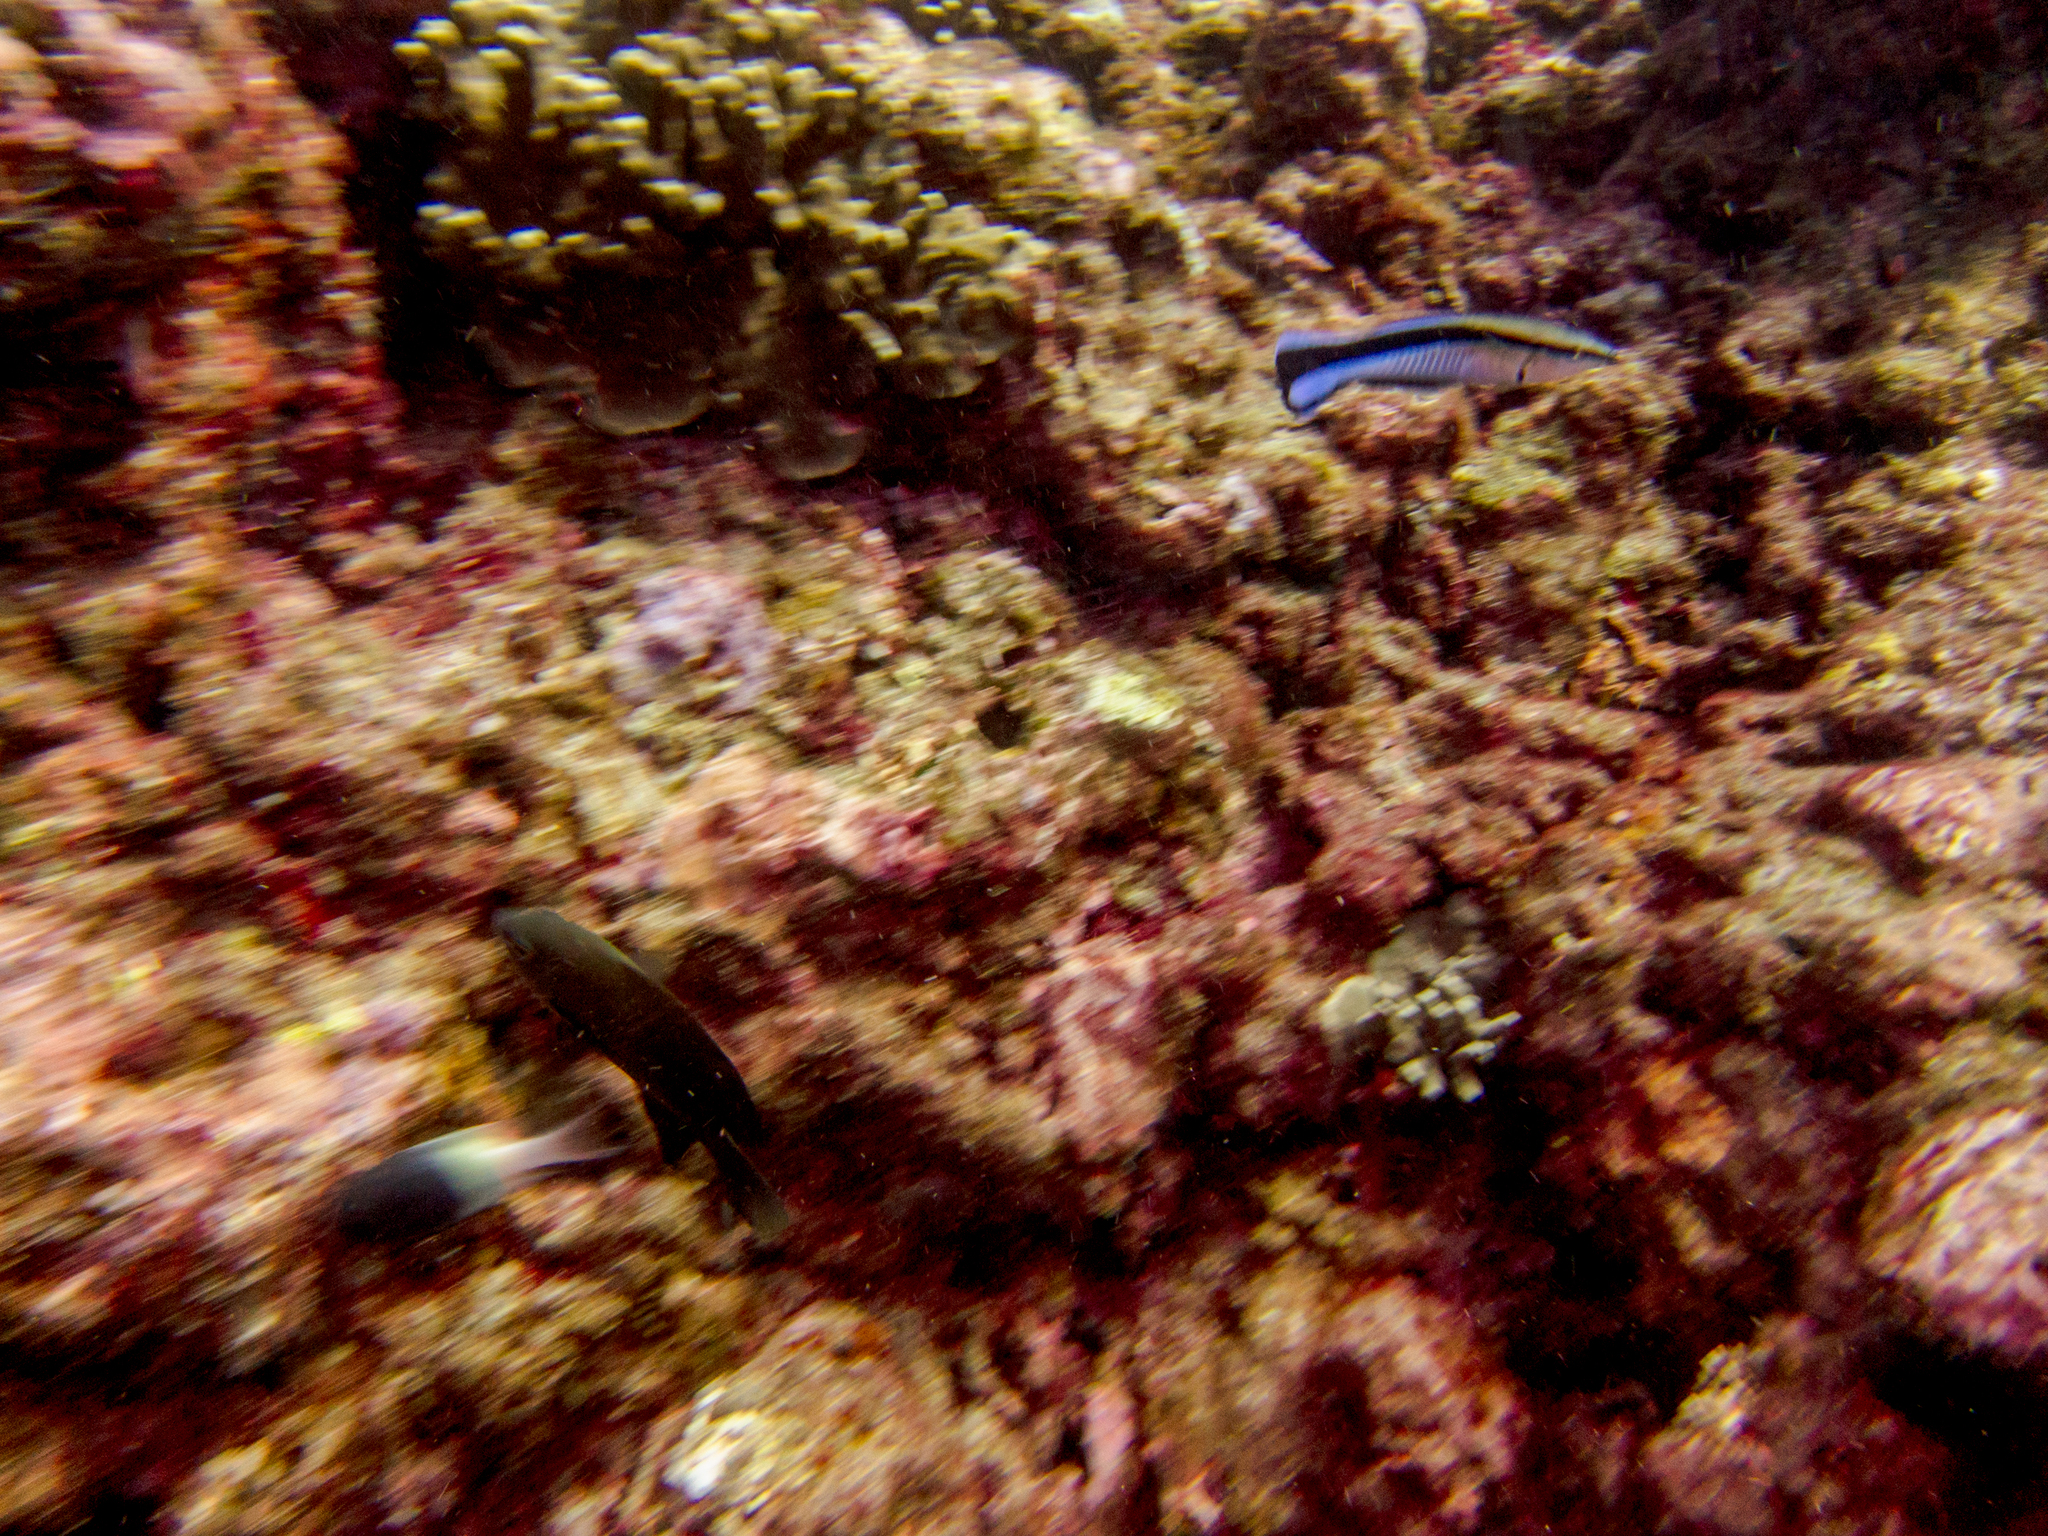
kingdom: Animalia
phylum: Chordata
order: Perciformes
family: Labridae
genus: Labroides
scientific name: Labroides dimidiatus
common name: Blue diesel wrasse
